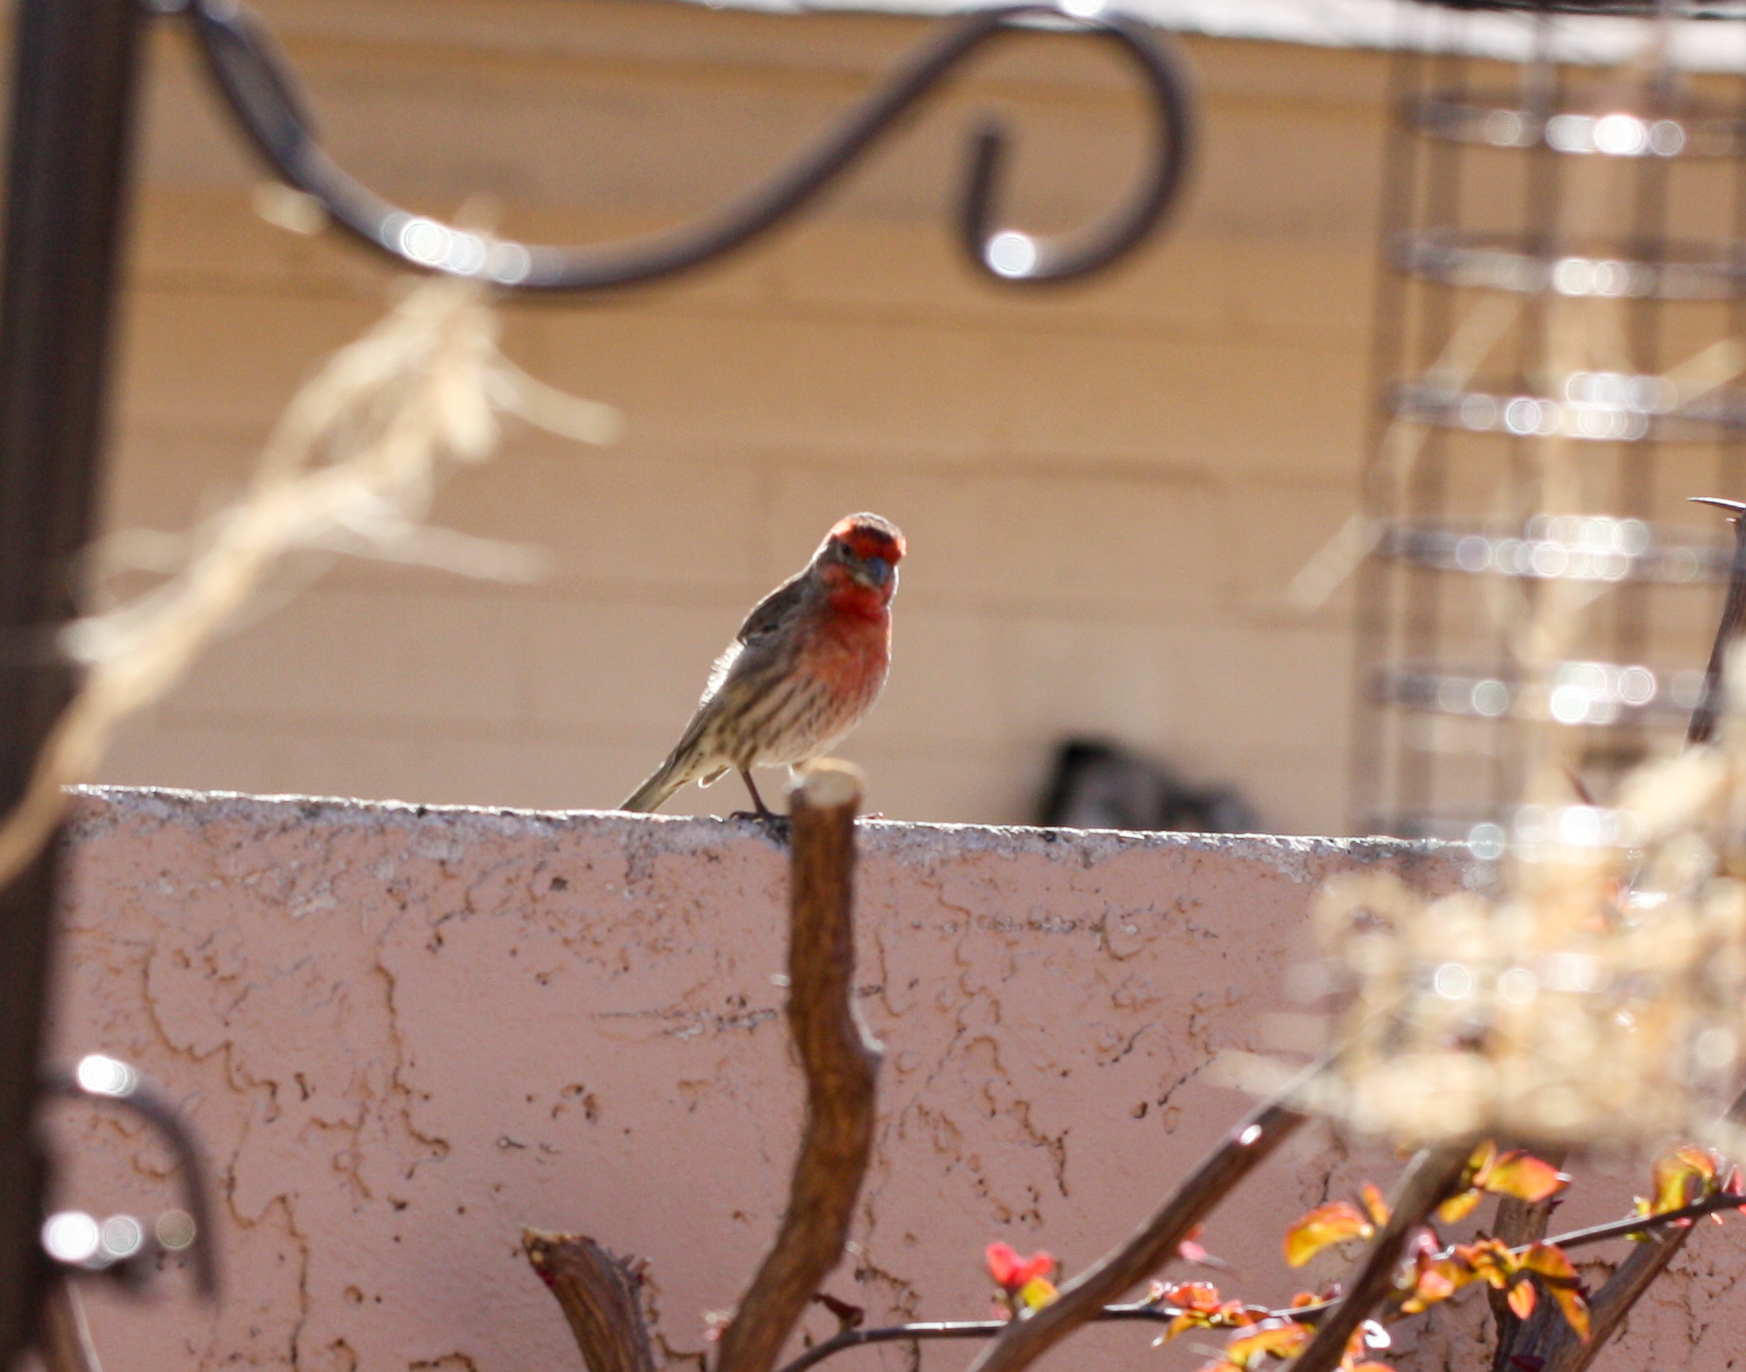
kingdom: Animalia
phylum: Chordata
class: Aves
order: Passeriformes
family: Fringillidae
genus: Haemorhous
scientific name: Haemorhous mexicanus
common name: House finch
